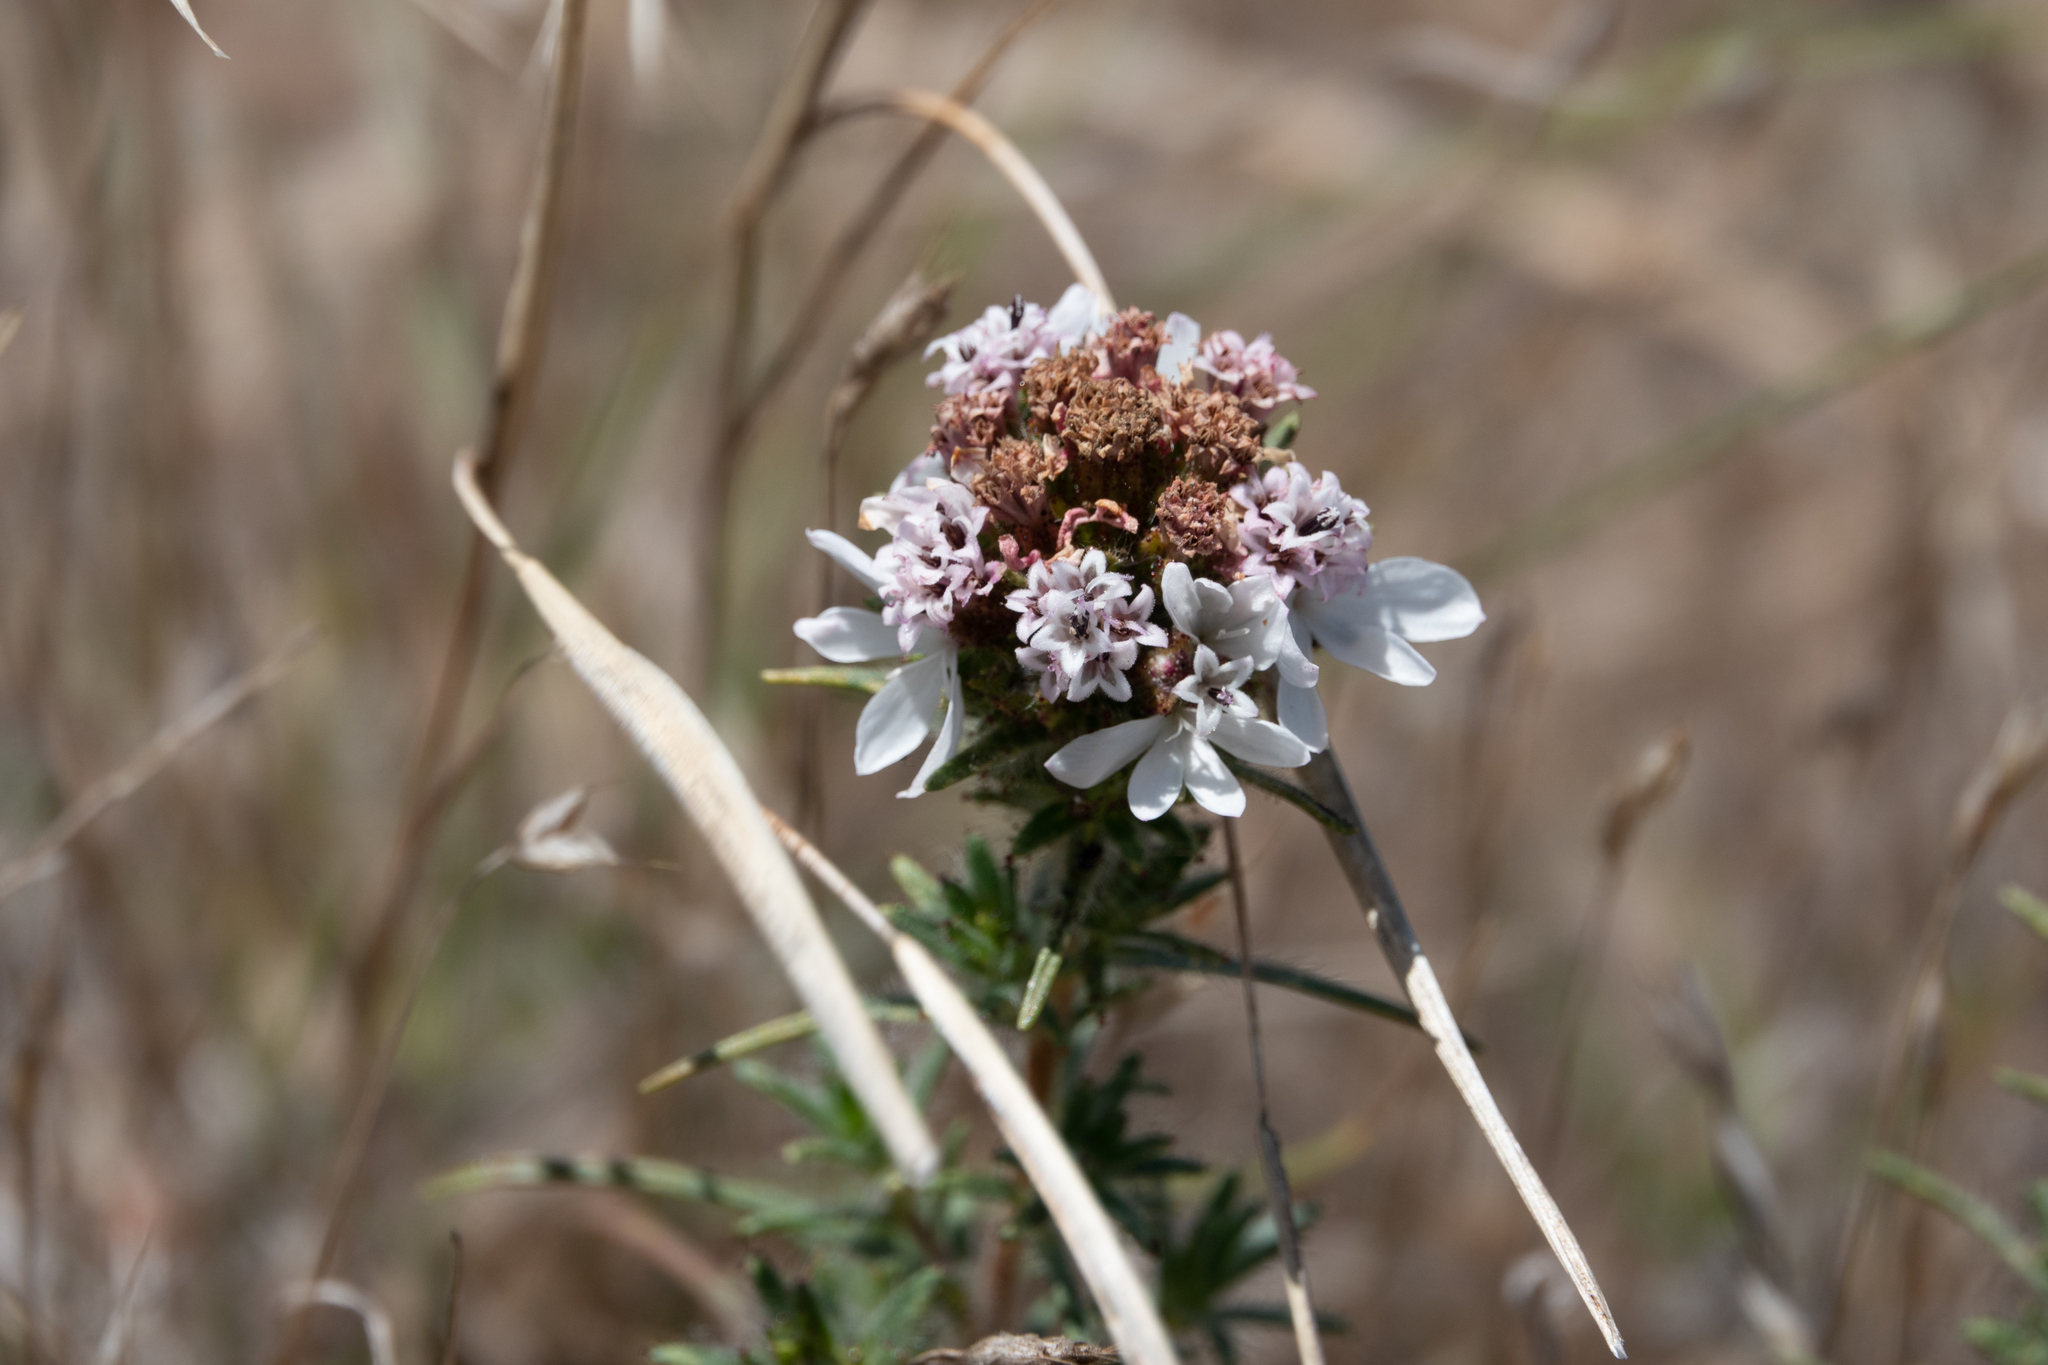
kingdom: Plantae
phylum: Tracheophyta
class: Magnoliopsida
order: Asterales
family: Asteraceae
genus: Calycadenia
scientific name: Calycadenia multiglandulosa
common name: Sticky calycadenia
